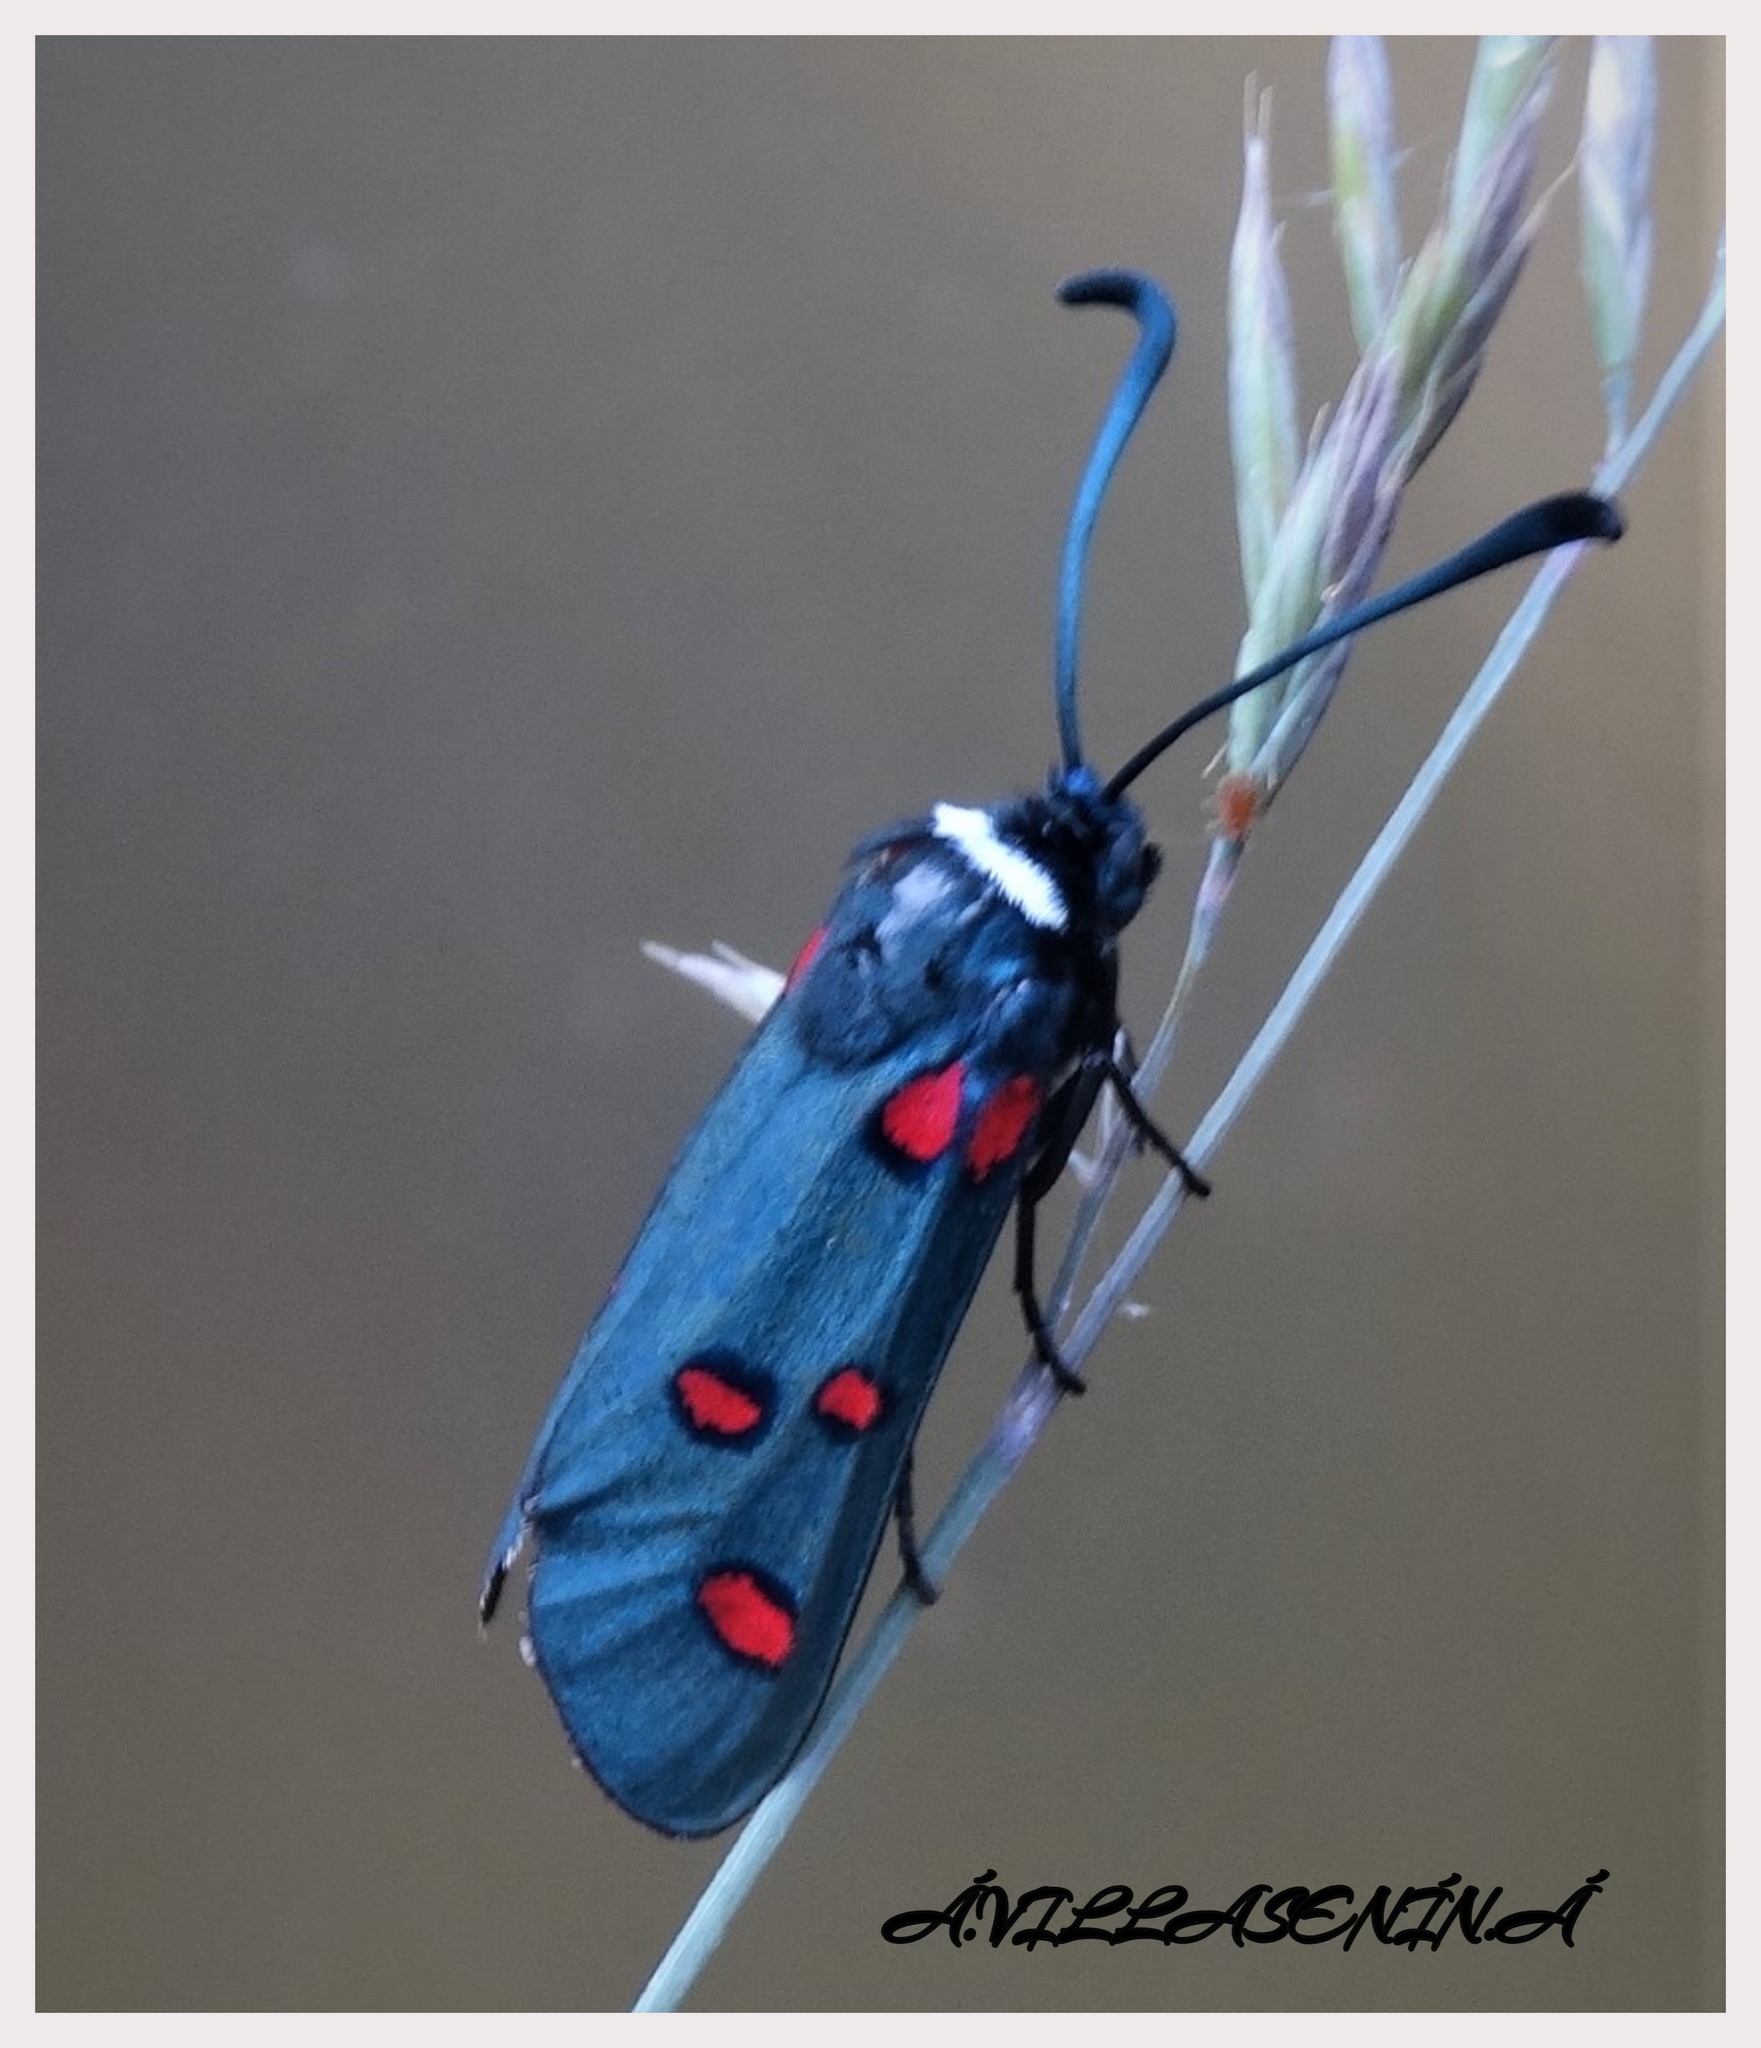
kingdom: Animalia
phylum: Arthropoda
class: Insecta
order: Lepidoptera
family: Zygaenidae
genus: Zygaena
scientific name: Zygaena lavandulae
